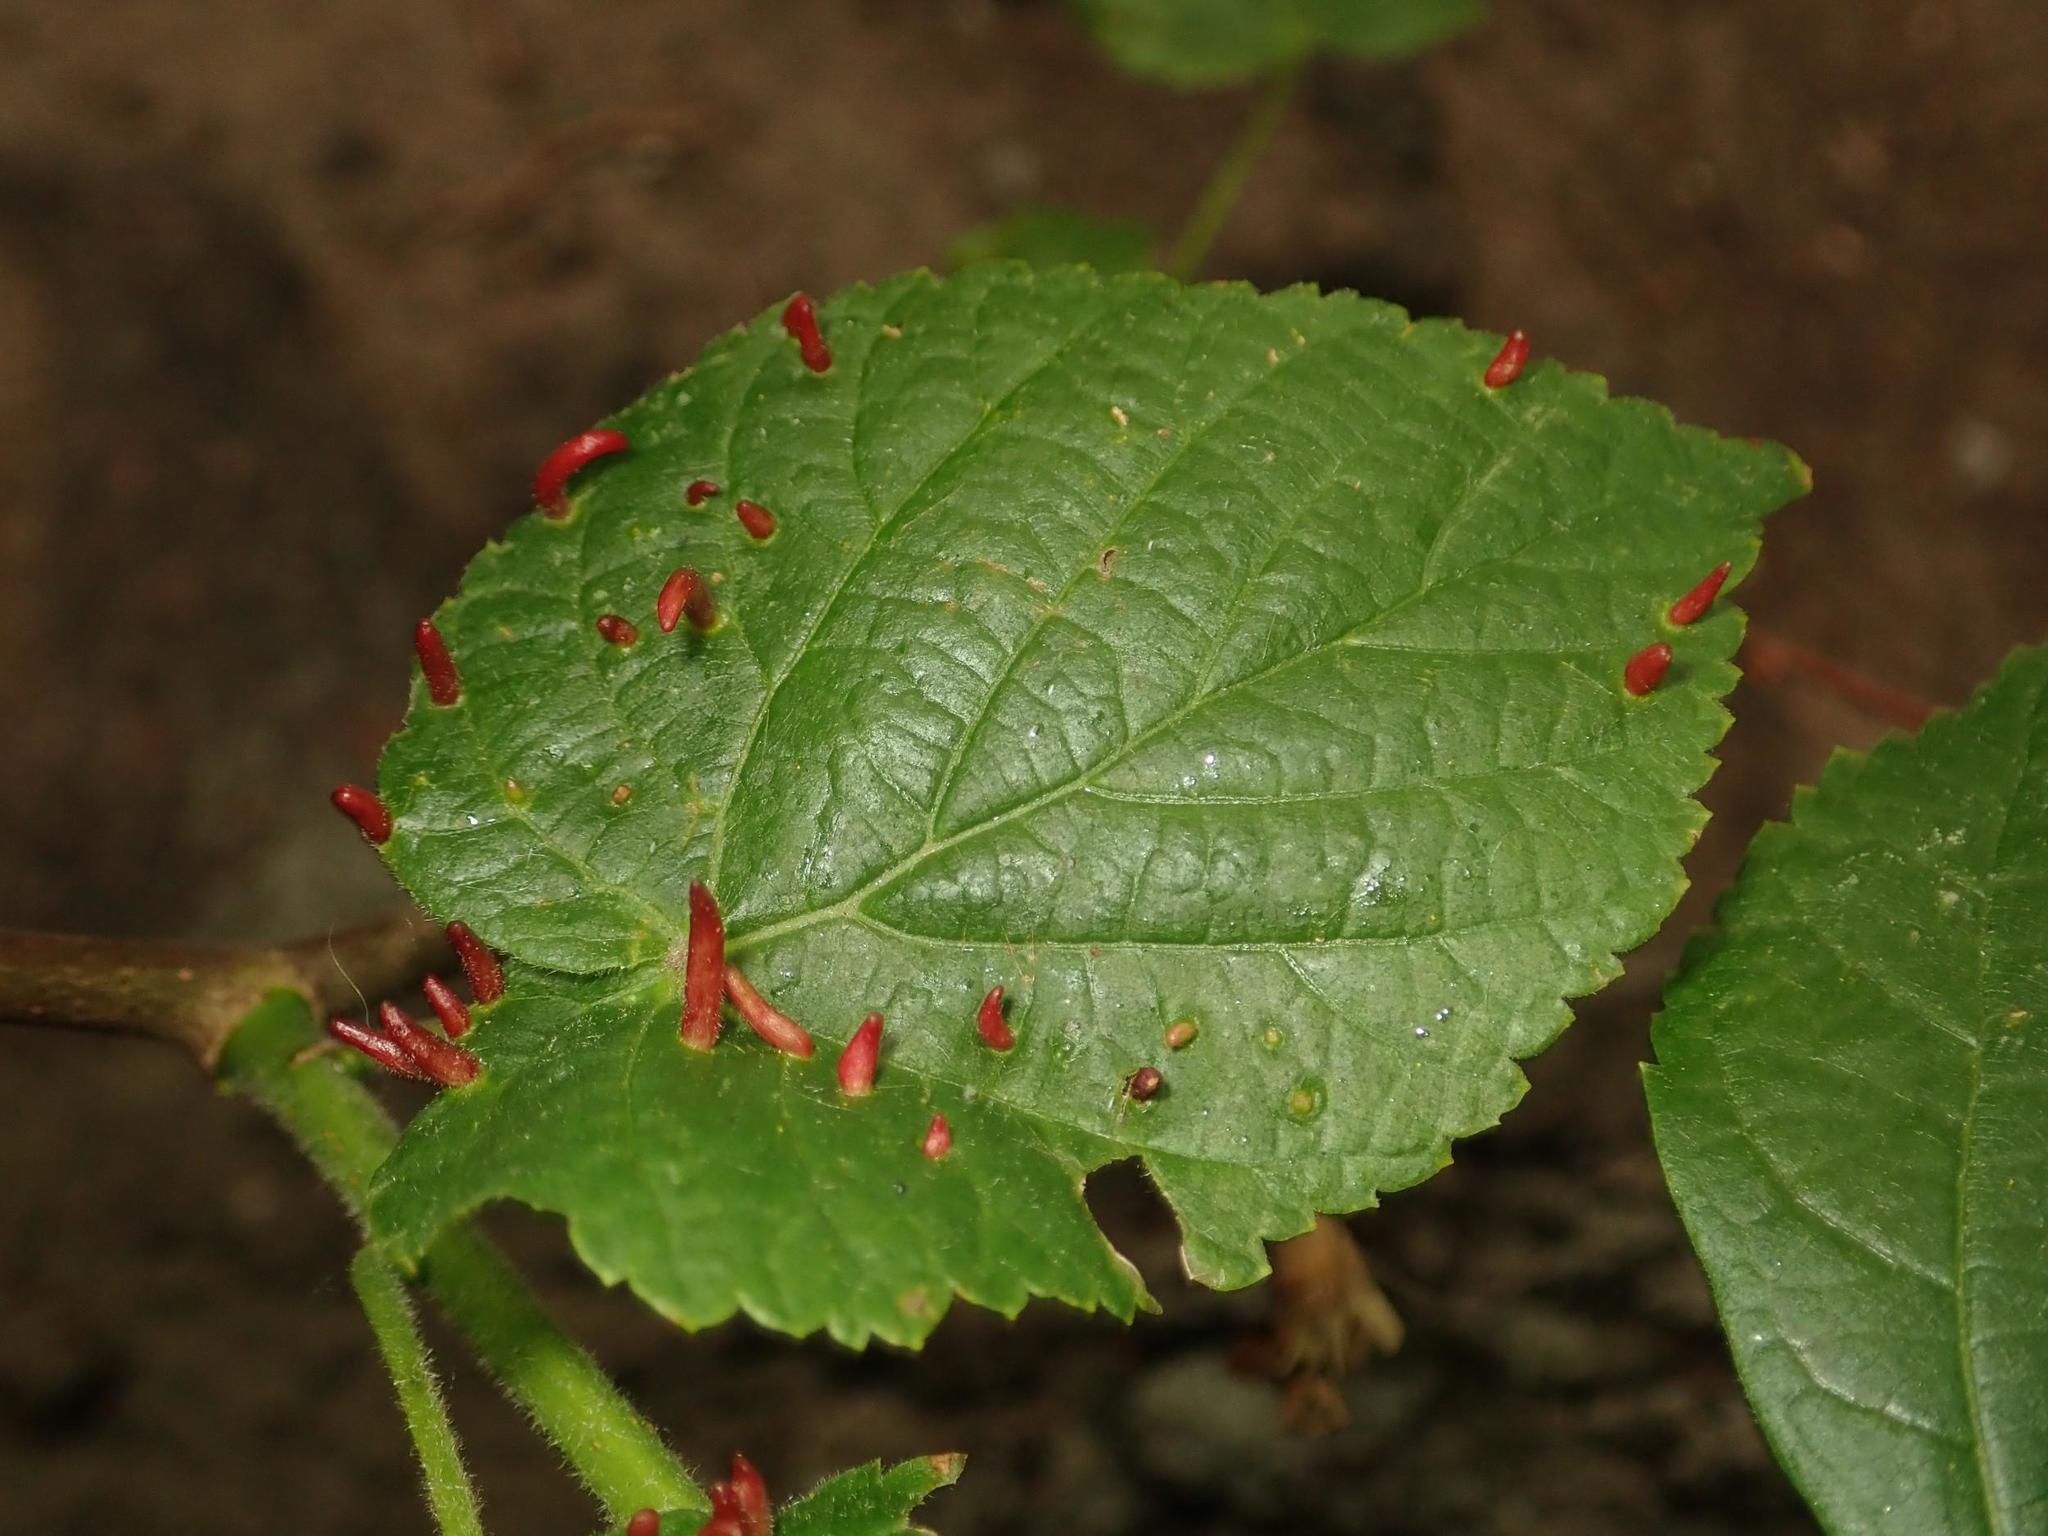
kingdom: Plantae
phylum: Tracheophyta
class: Magnoliopsida
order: Malvales
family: Malvaceae
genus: Tilia
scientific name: Tilia cordata
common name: Small-leaved lime
